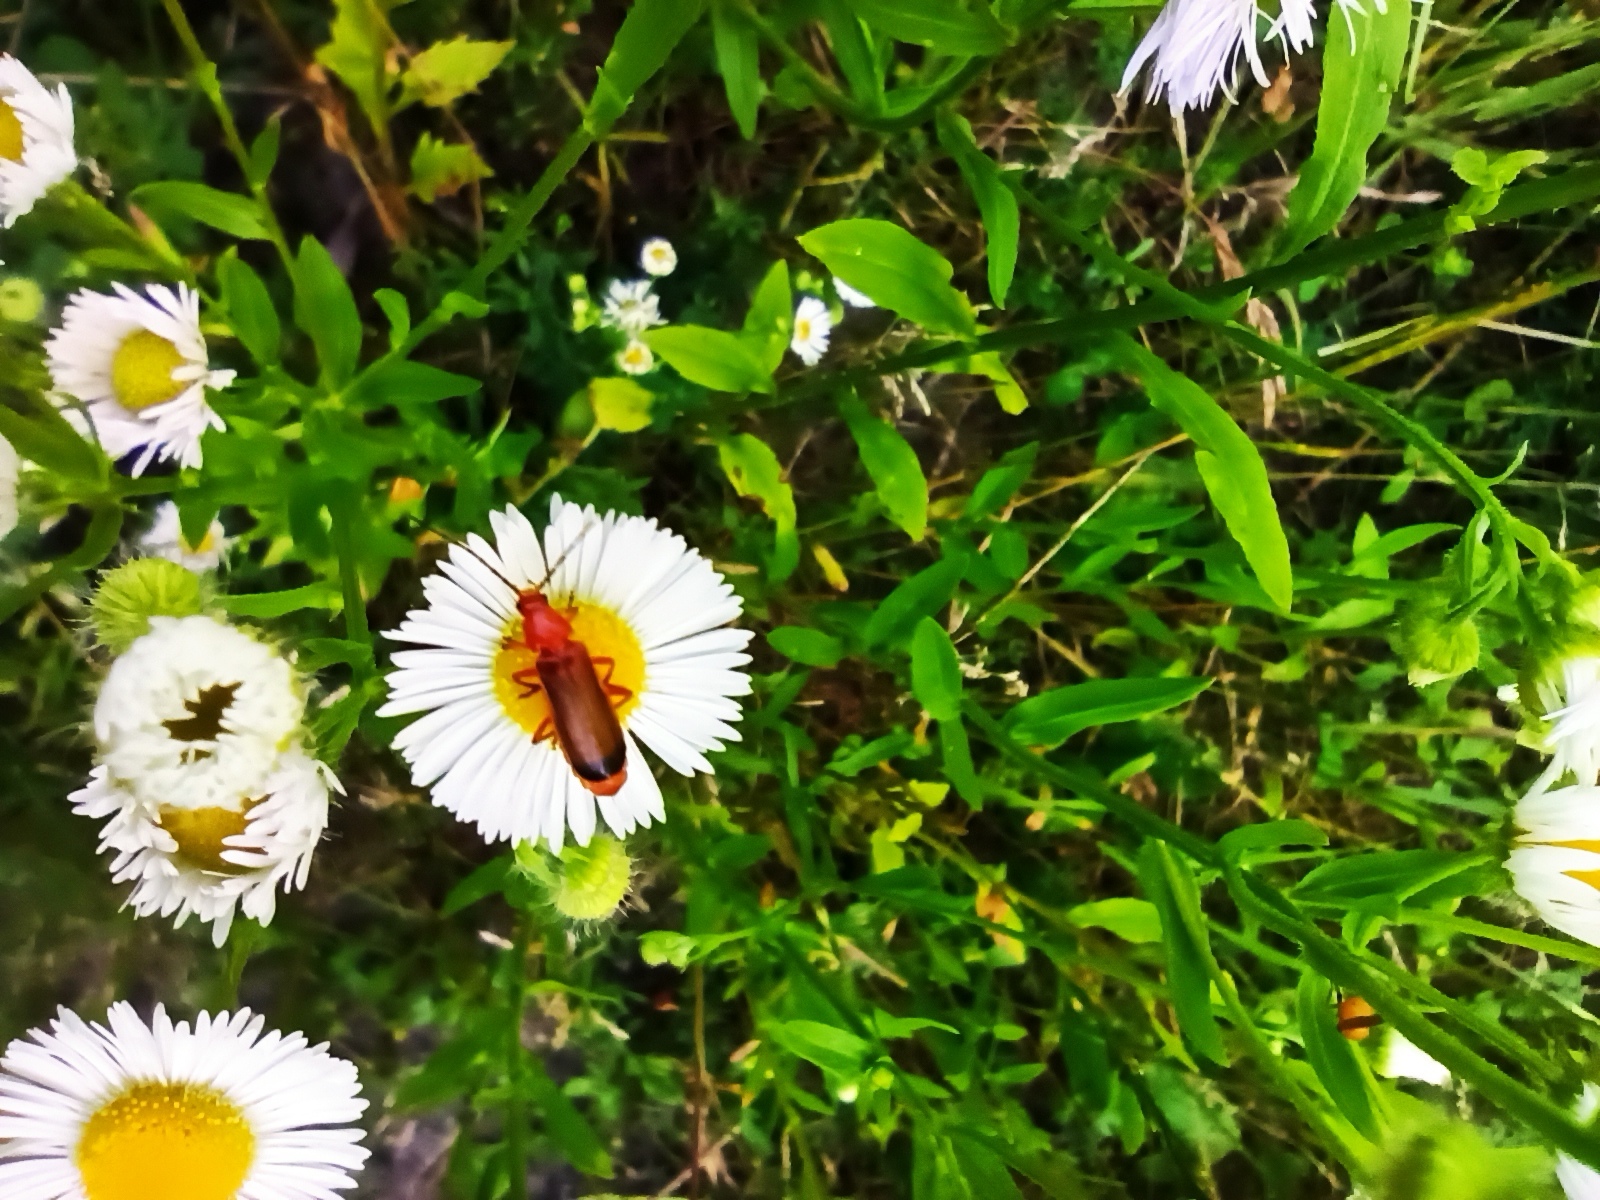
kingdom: Animalia
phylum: Arthropoda
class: Insecta
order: Coleoptera
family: Cantharidae
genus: Rhagonycha
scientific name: Rhagonycha fulva
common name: Common red soldier beetle
